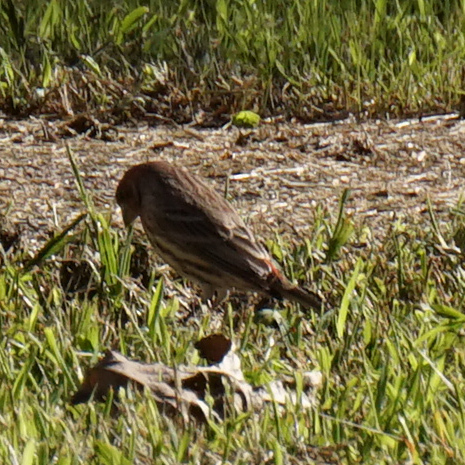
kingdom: Animalia
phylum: Chordata
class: Aves
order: Passeriformes
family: Fringillidae
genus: Haemorhous
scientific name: Haemorhous mexicanus
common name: House finch
